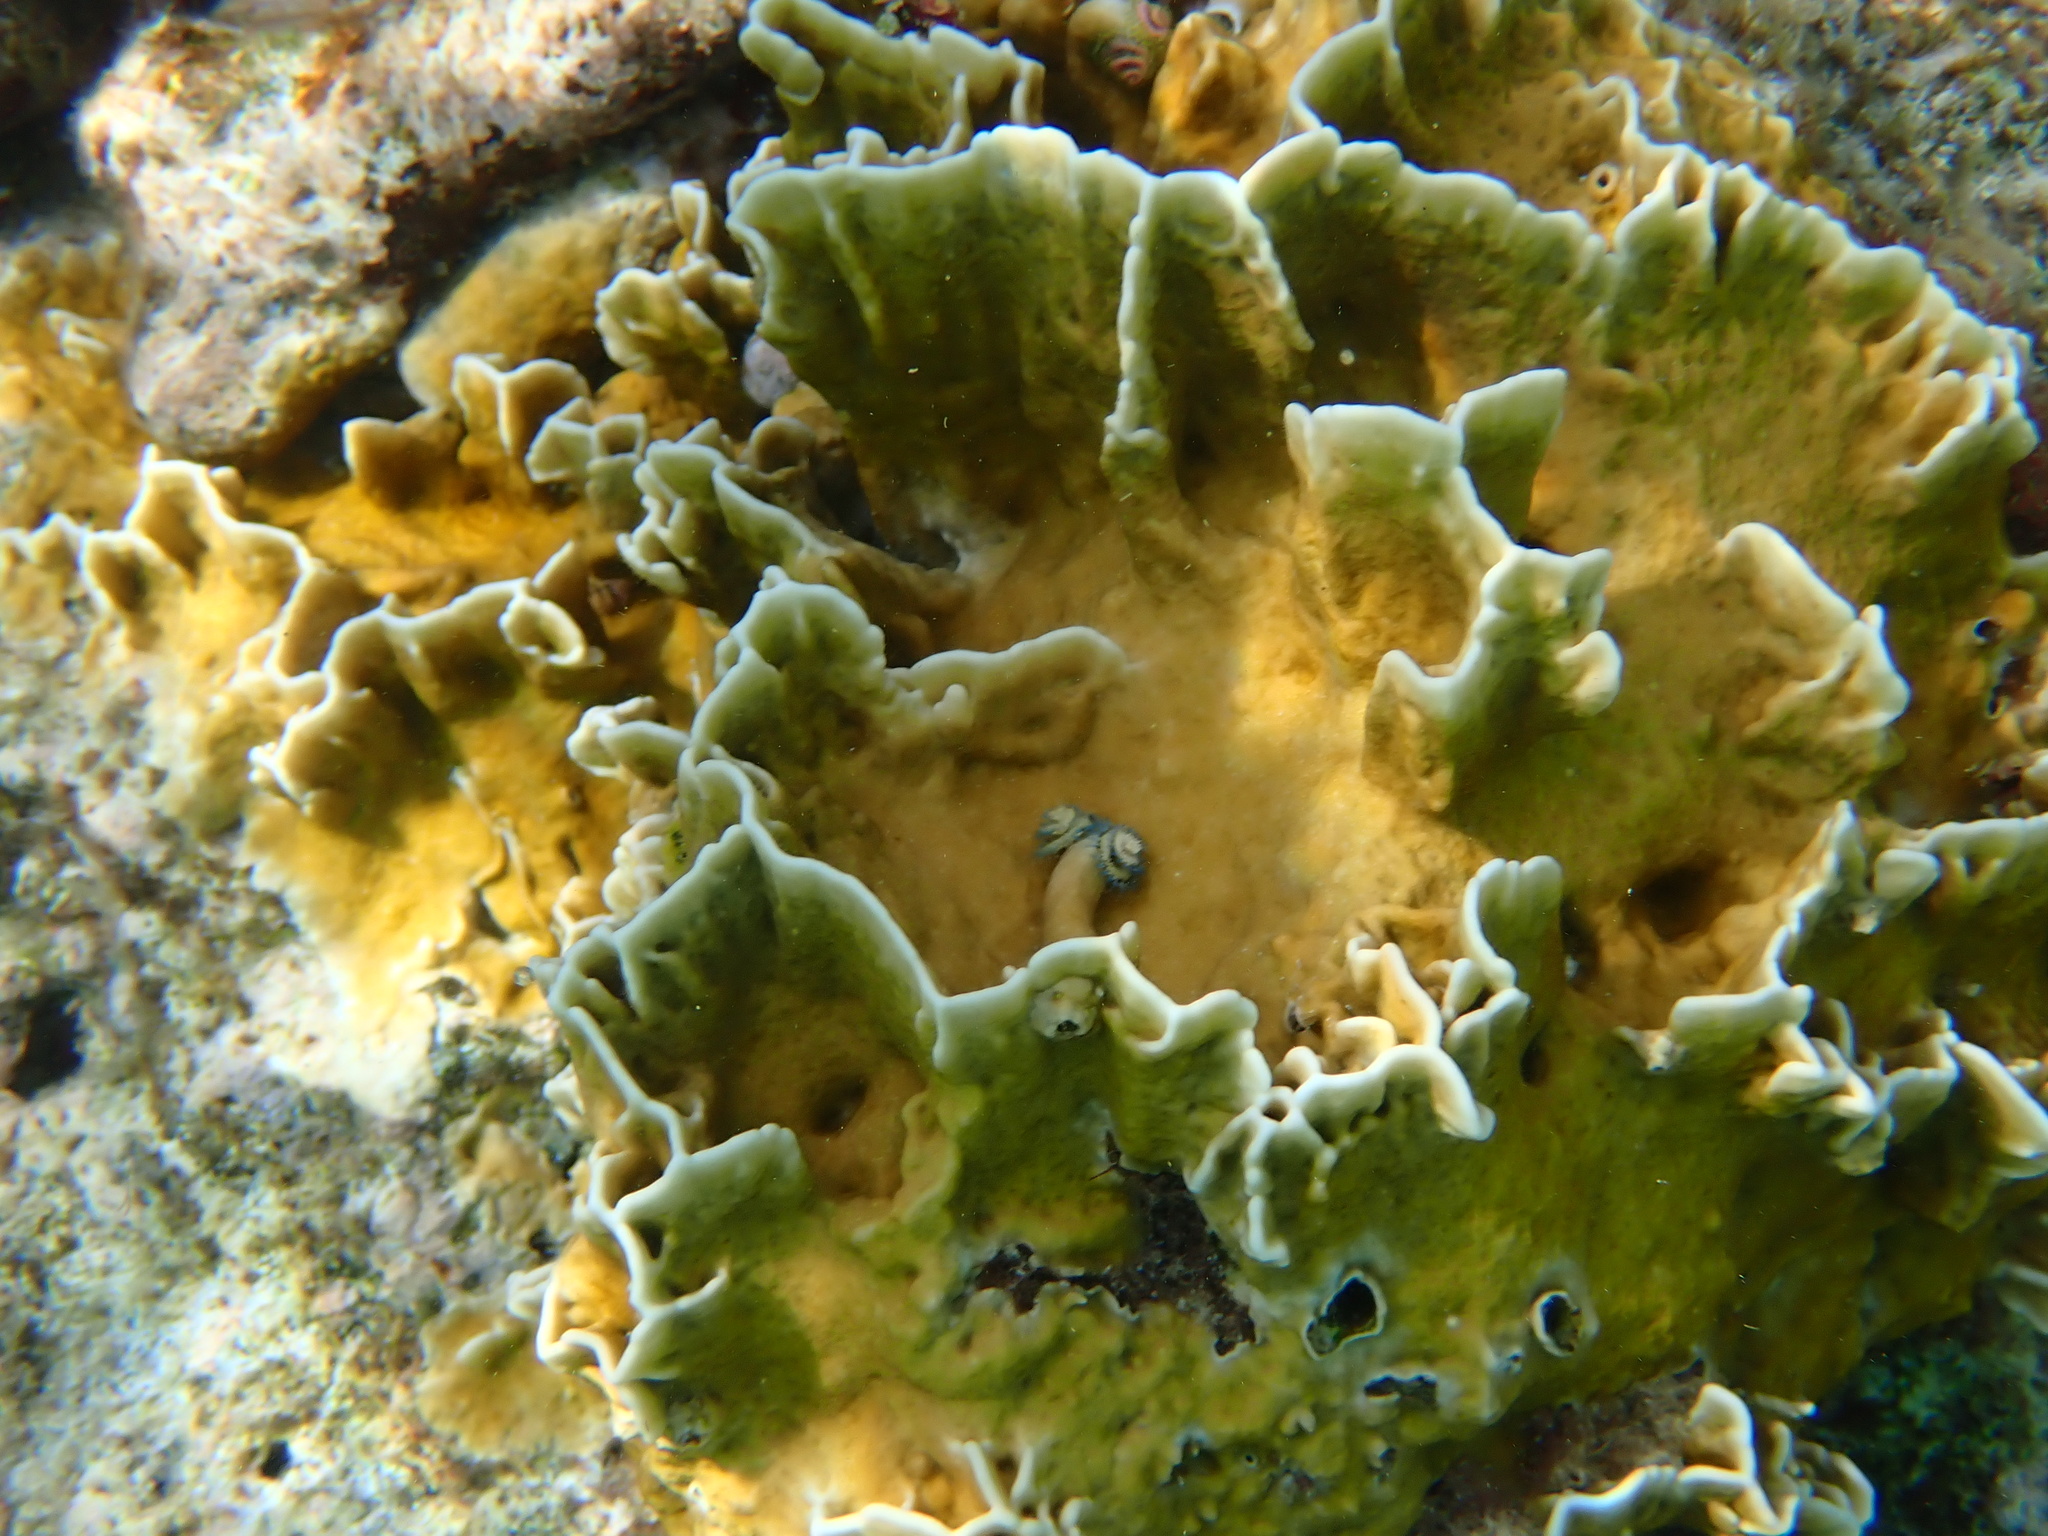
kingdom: Animalia
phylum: Cnidaria
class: Hydrozoa
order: Anthoathecata
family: Milleporidae
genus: Millepora
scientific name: Millepora complanata
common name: Bladed fire coral
